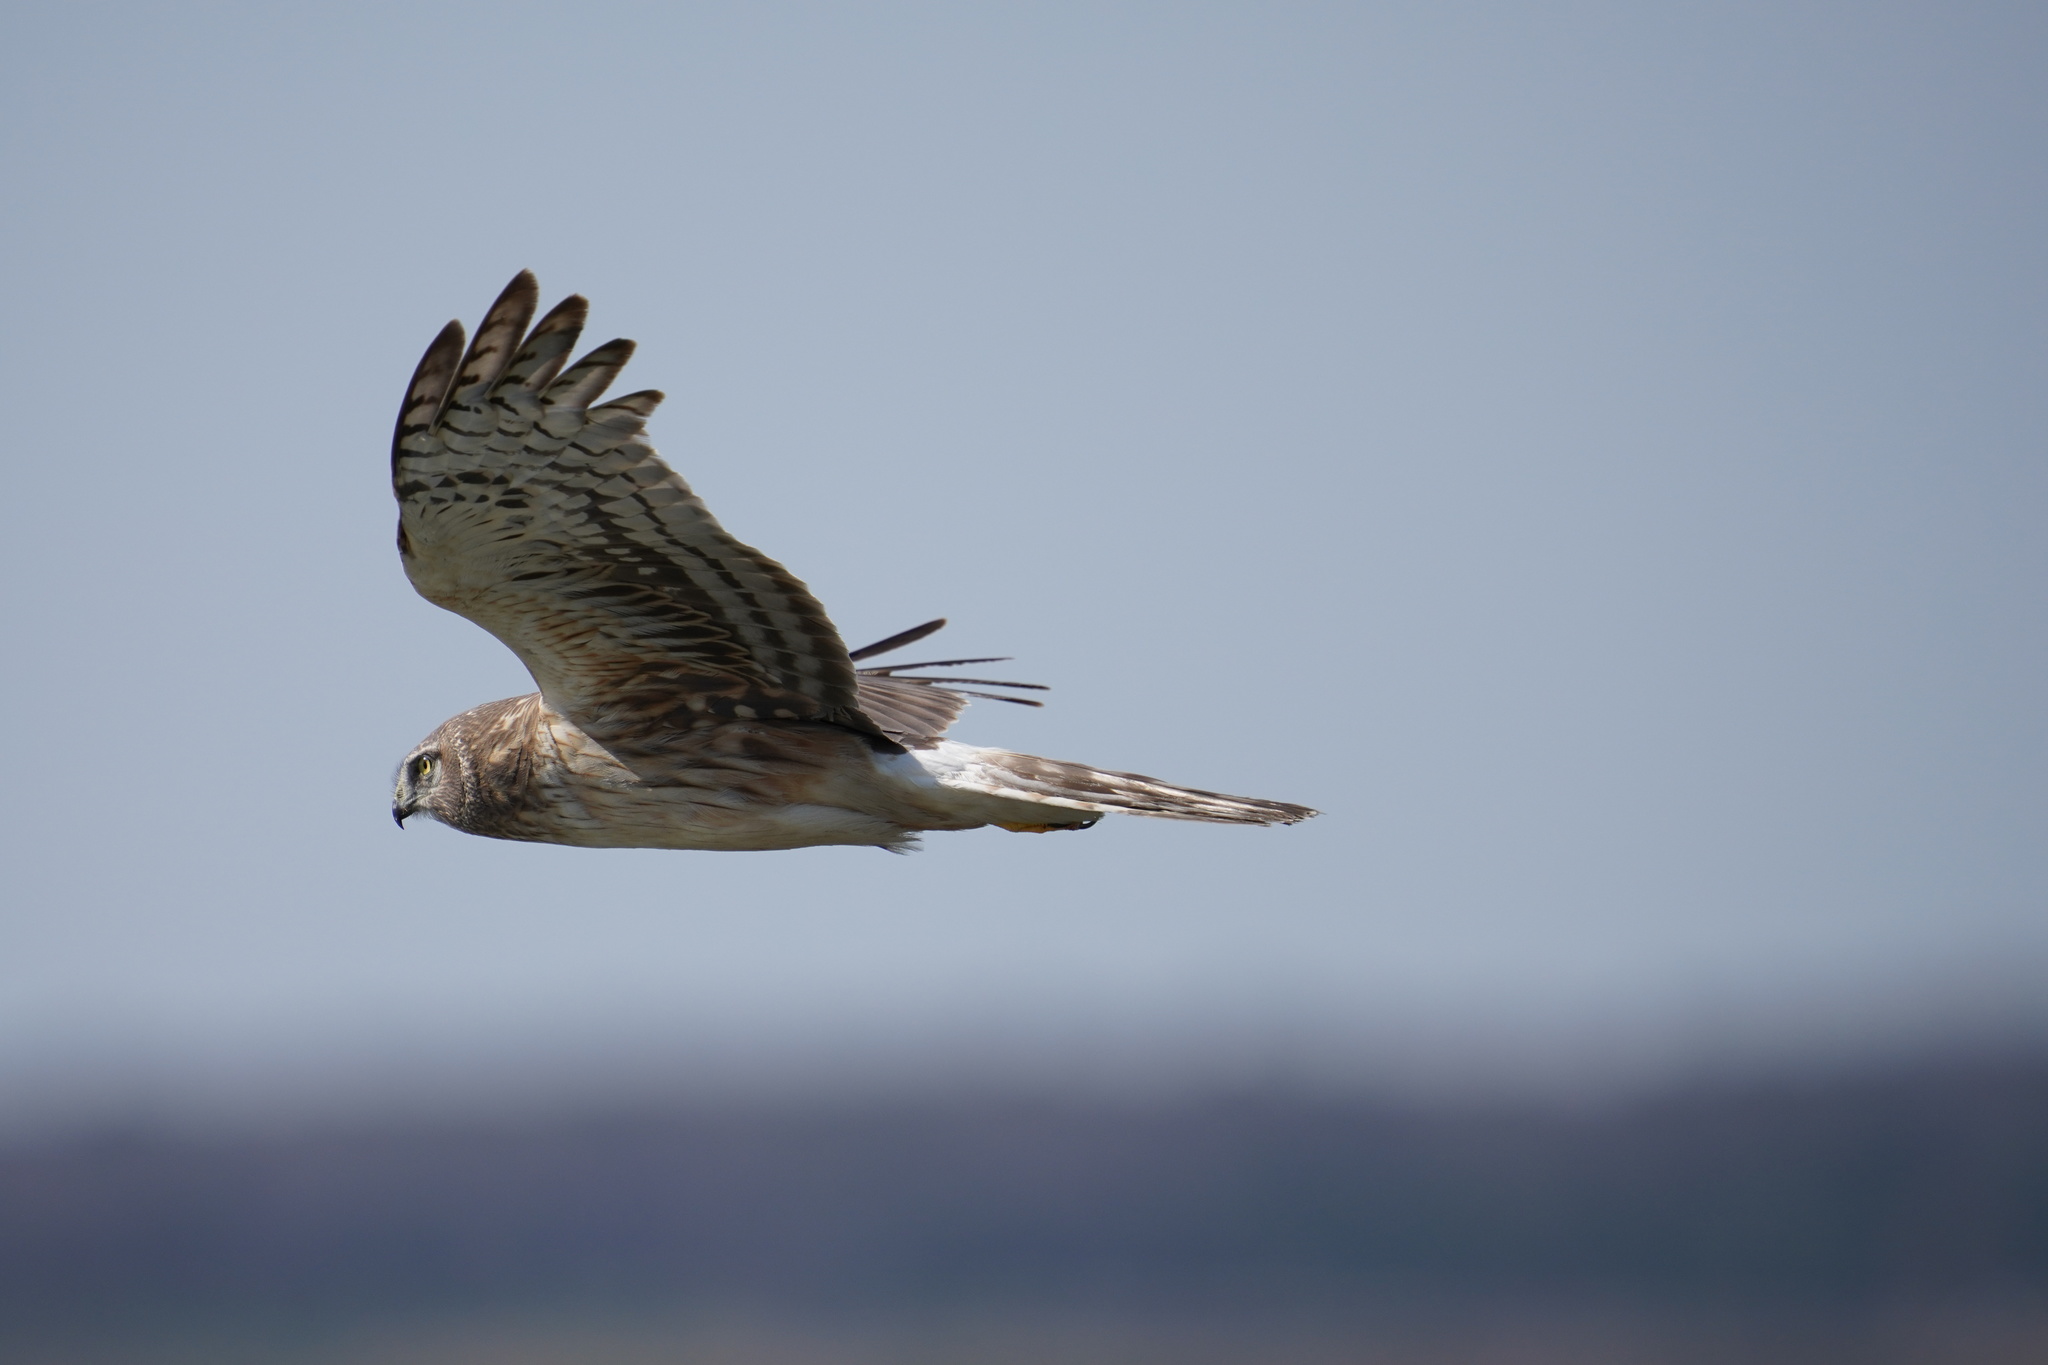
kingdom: Animalia
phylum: Chordata
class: Aves
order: Accipitriformes
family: Accipitridae
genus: Circus
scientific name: Circus cyaneus
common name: Hen harrier
